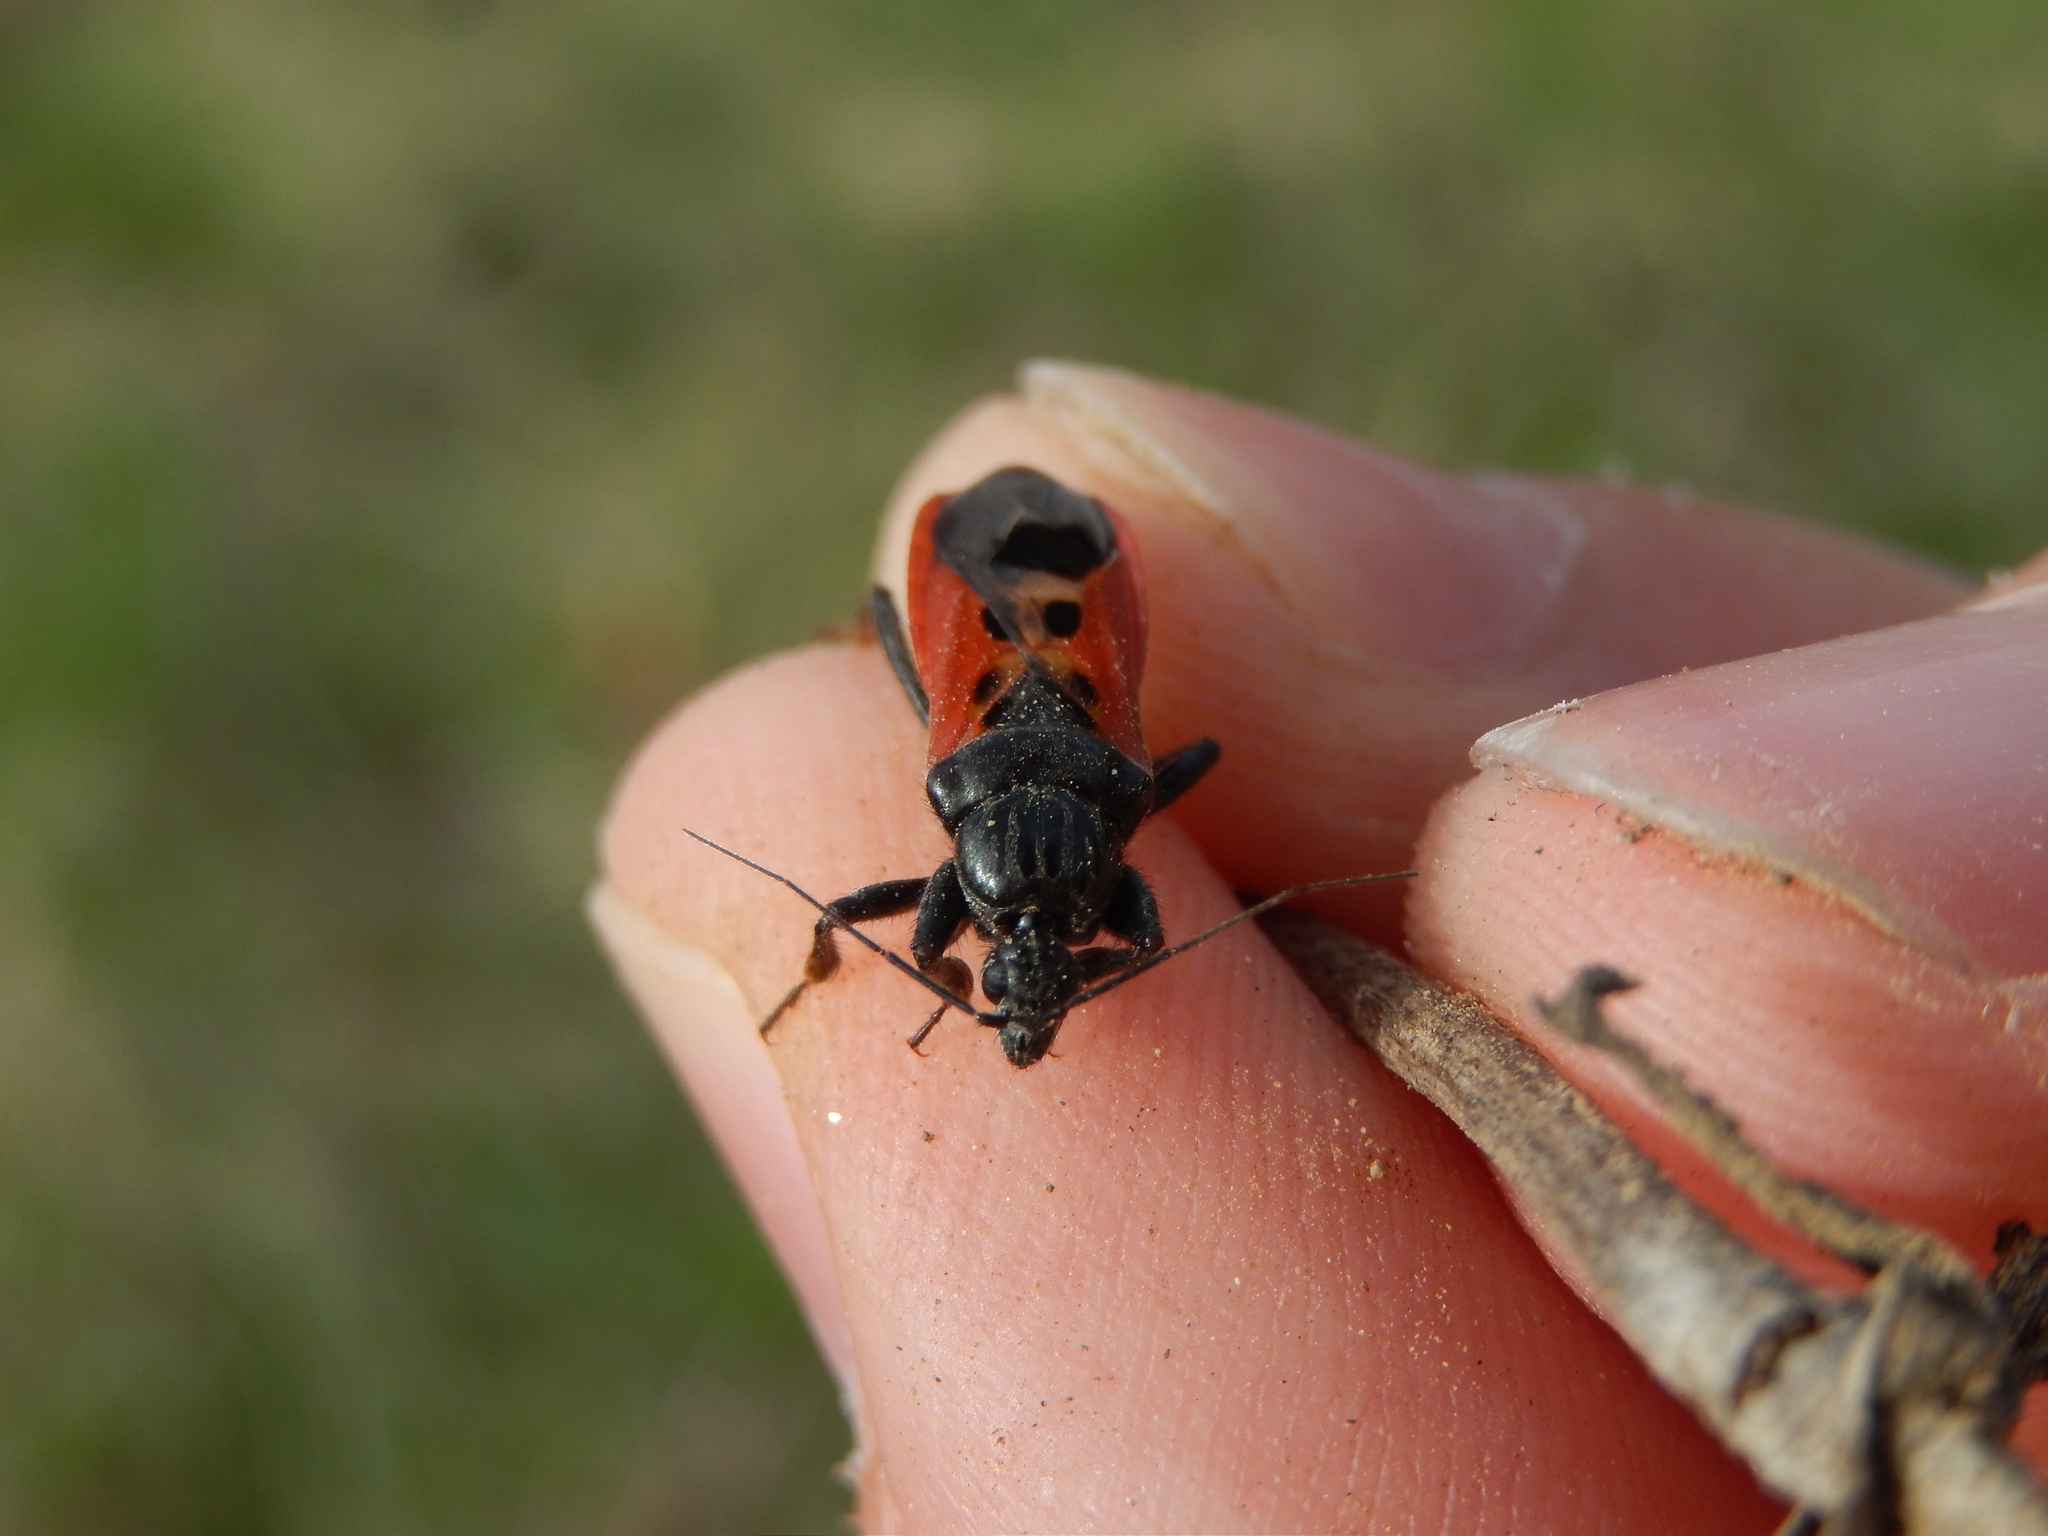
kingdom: Animalia
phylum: Arthropoda
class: Insecta
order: Hemiptera
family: Reduviidae
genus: Peirates
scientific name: Peirates hybridus
